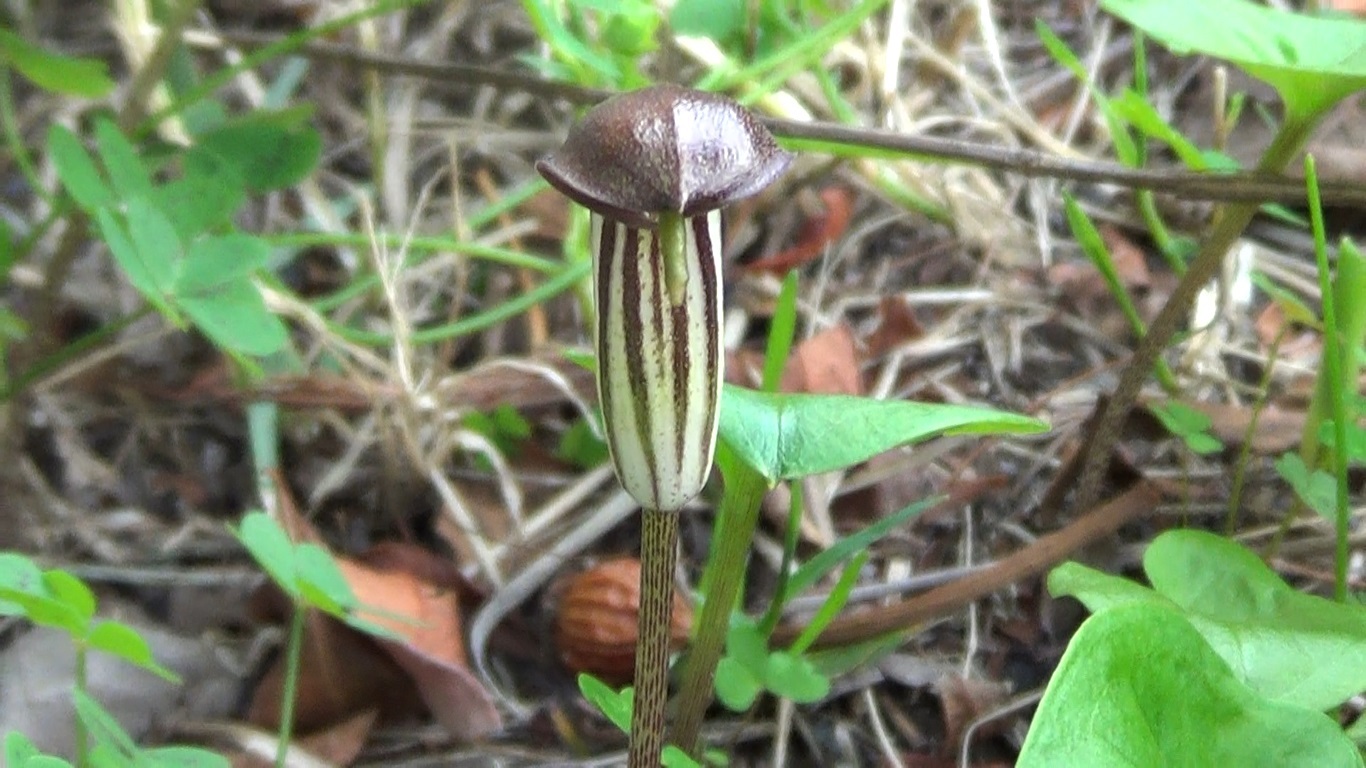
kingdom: Plantae
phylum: Tracheophyta
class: Liliopsida
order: Alismatales
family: Araceae
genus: Arisarum
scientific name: Arisarum vulgare
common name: Common arisarum
